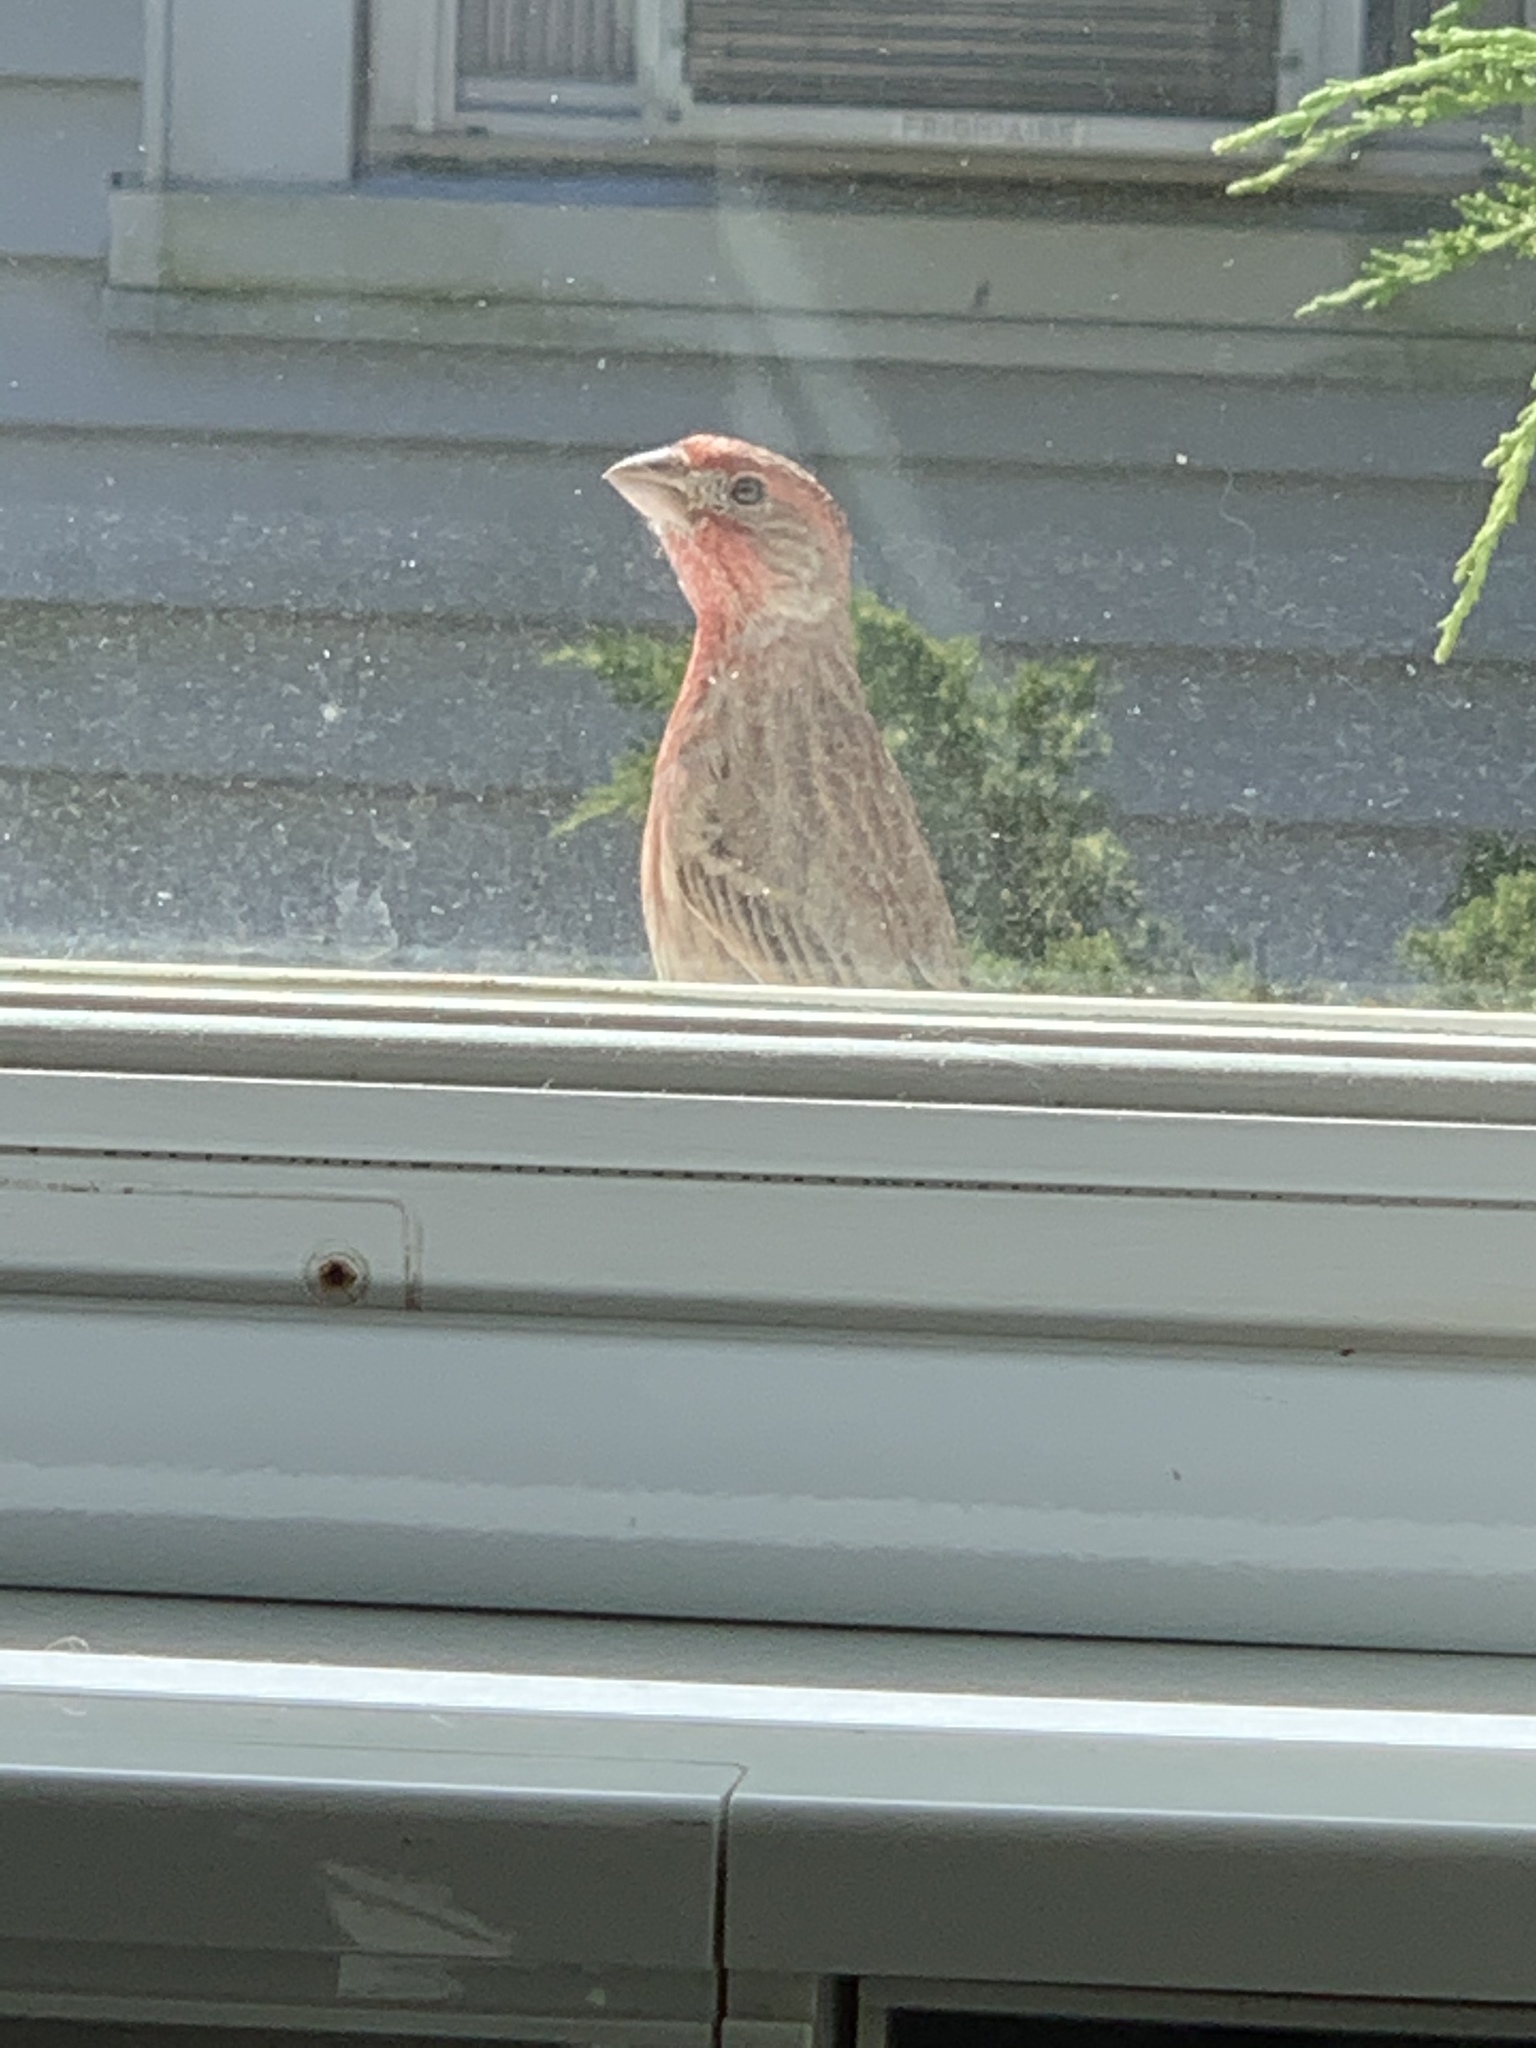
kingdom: Animalia
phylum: Chordata
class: Aves
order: Passeriformes
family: Fringillidae
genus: Haemorhous
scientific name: Haemorhous mexicanus
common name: House finch
